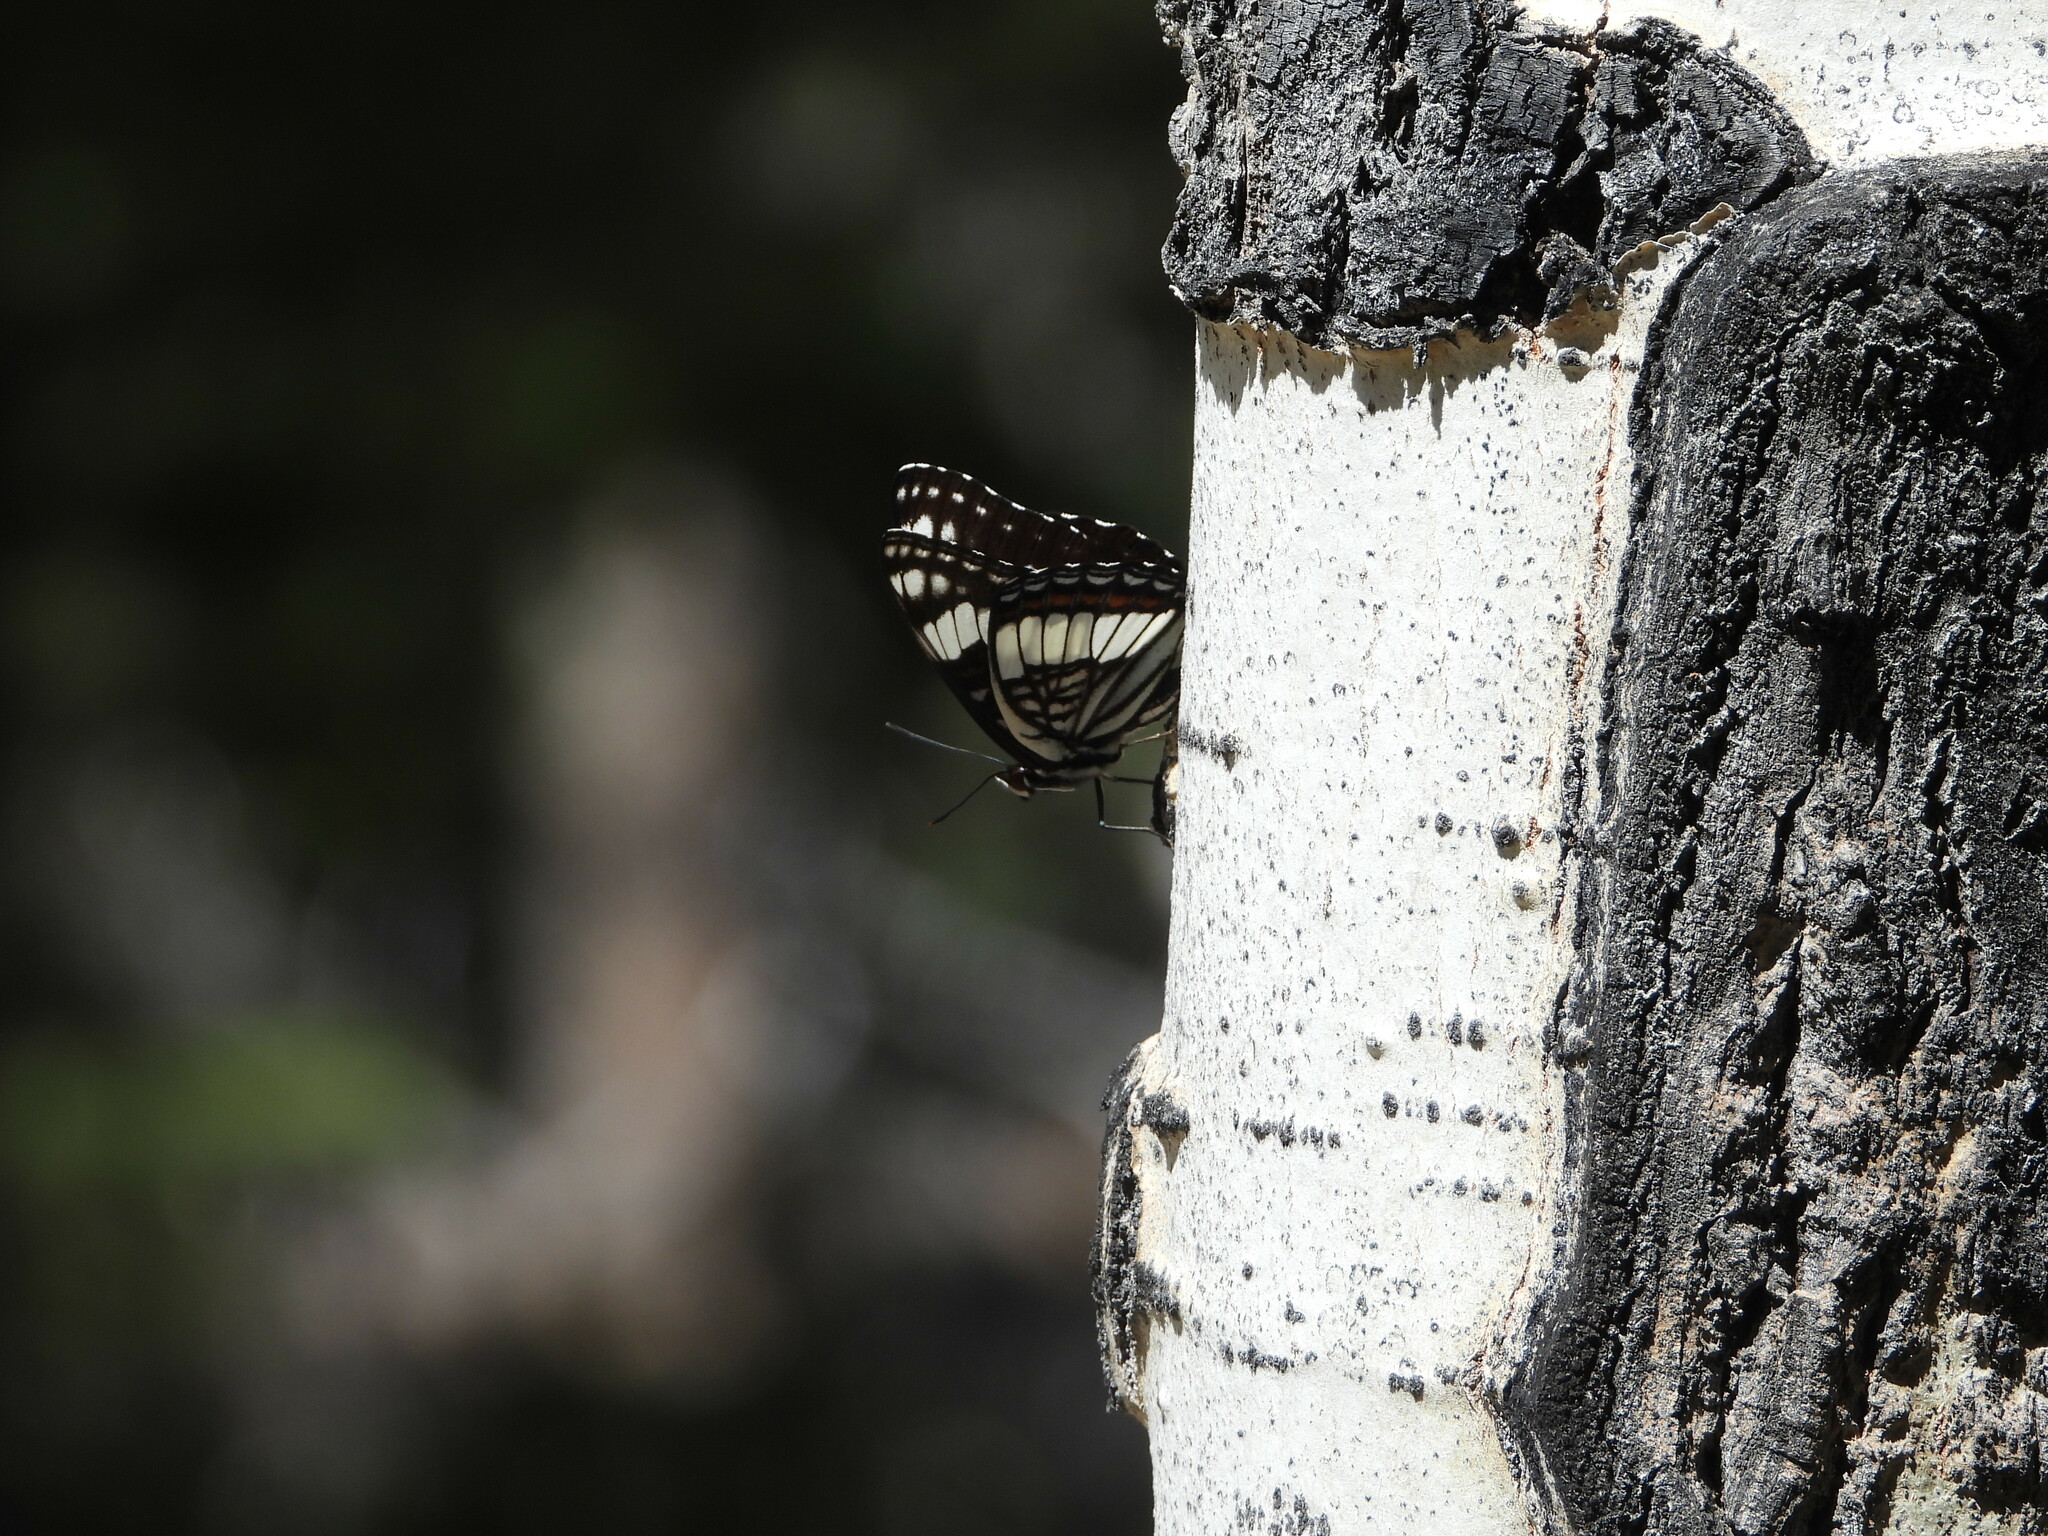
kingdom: Plantae
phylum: Tracheophyta
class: Magnoliopsida
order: Malpighiales
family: Salicaceae
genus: Populus
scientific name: Populus tremuloides
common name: Quaking aspen
